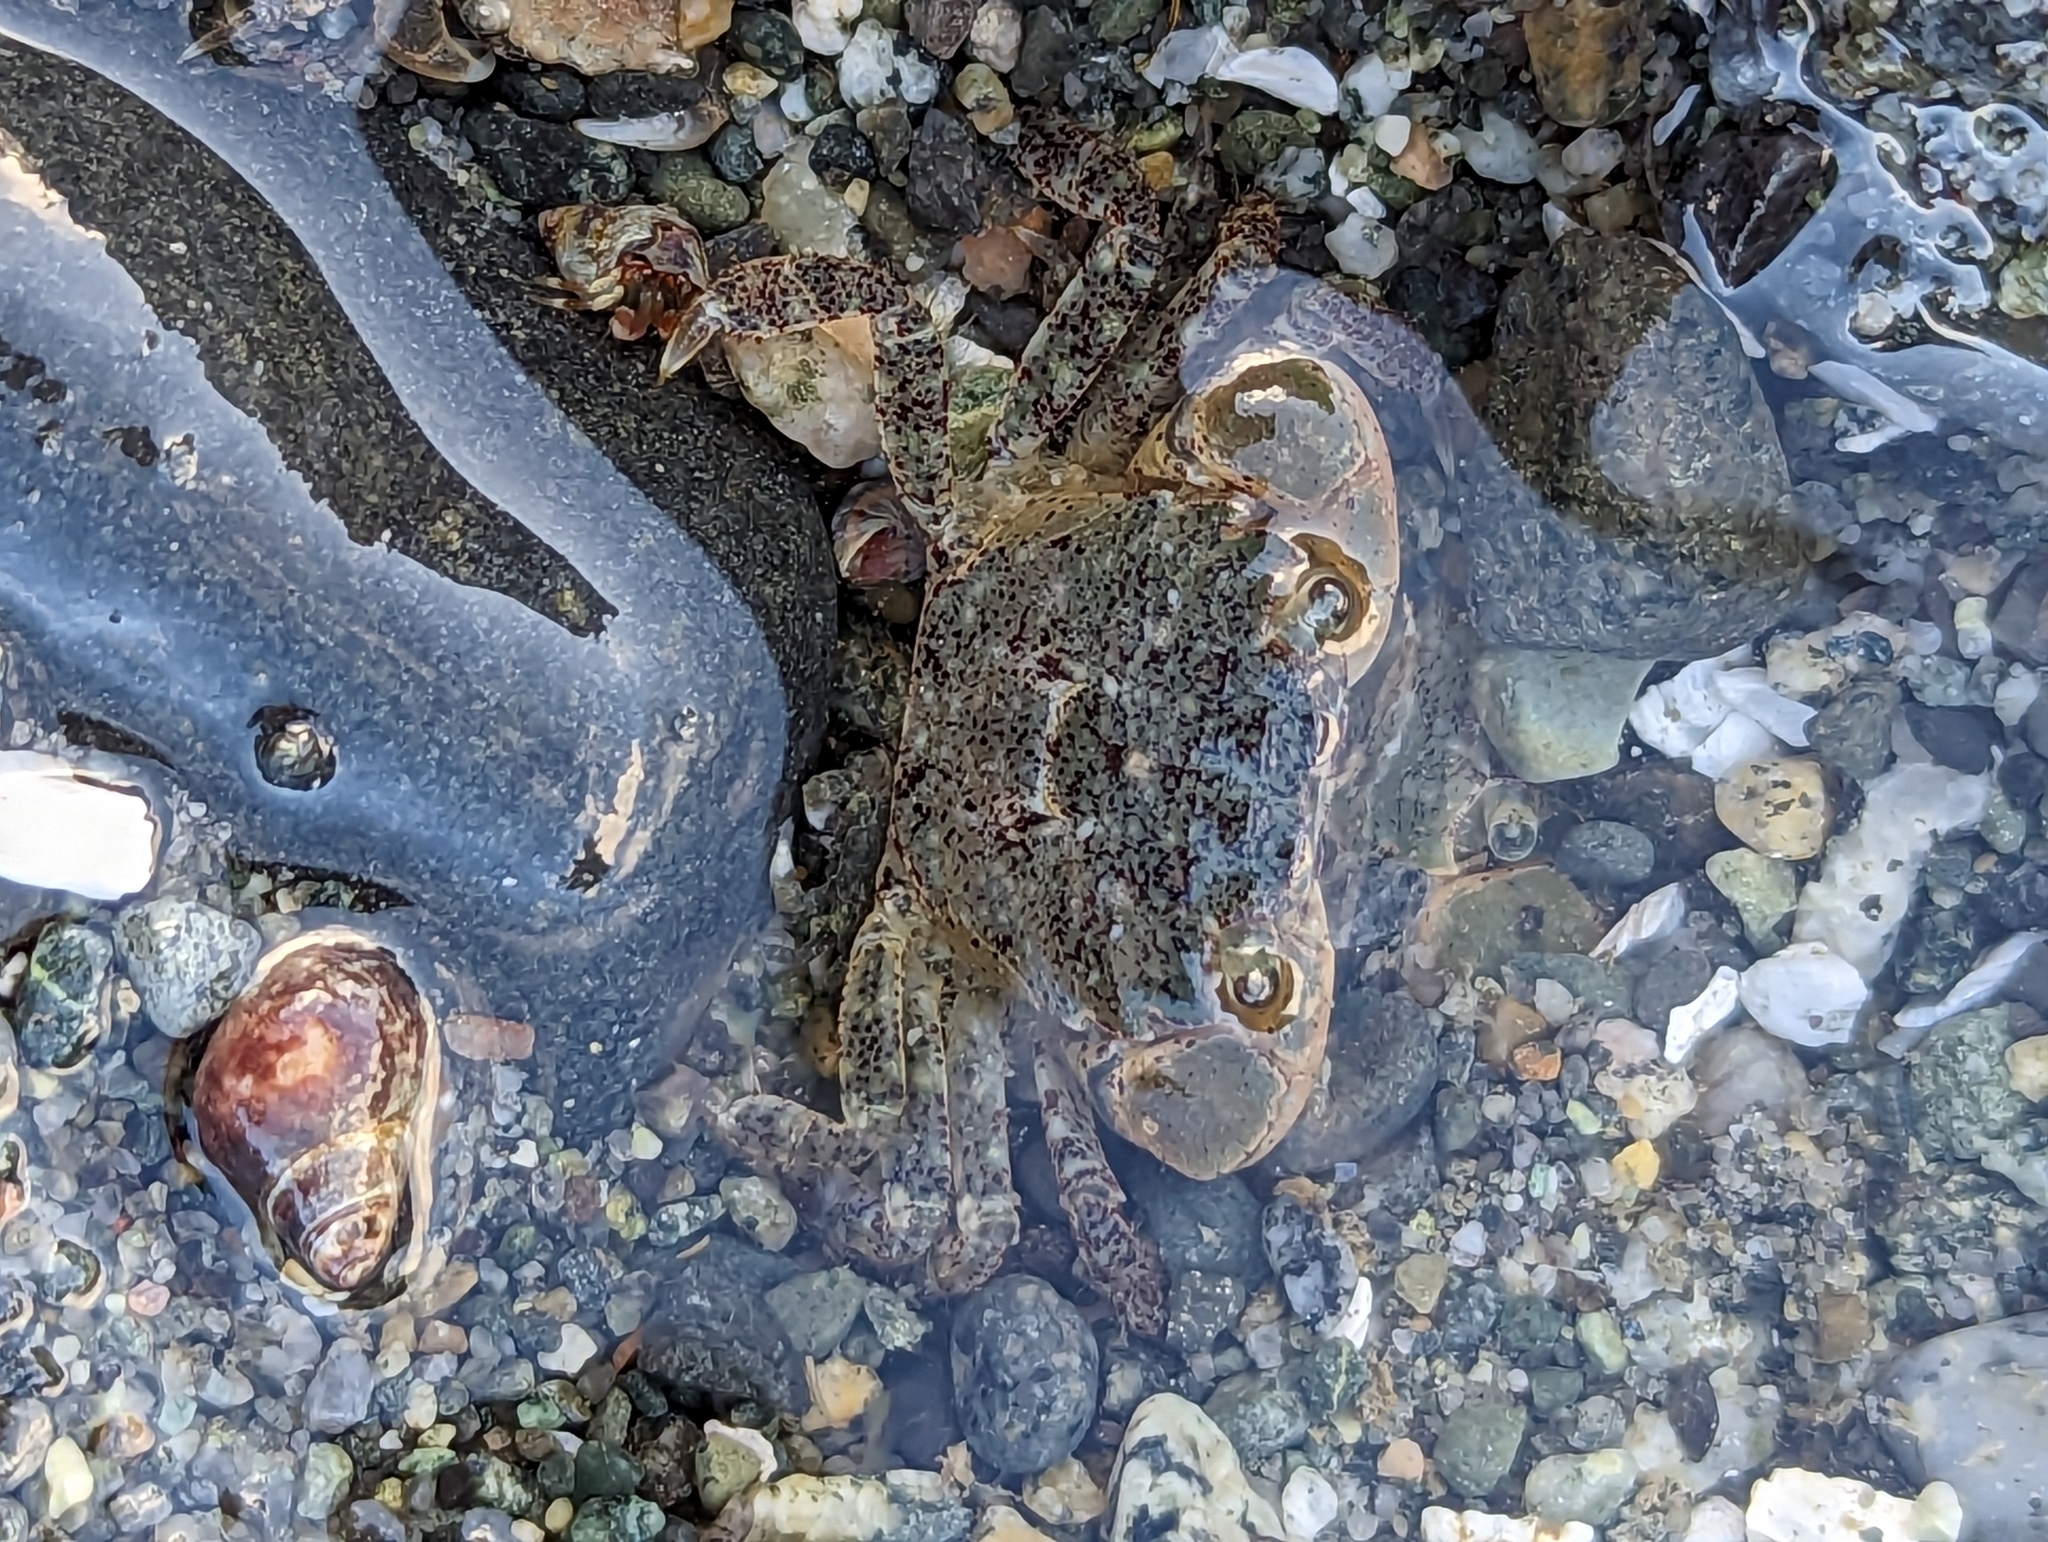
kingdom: Animalia
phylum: Arthropoda
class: Malacostraca
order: Decapoda
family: Varunidae
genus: Hemigrapsus
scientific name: Hemigrapsus oregonensis
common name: Yellow shore crab
